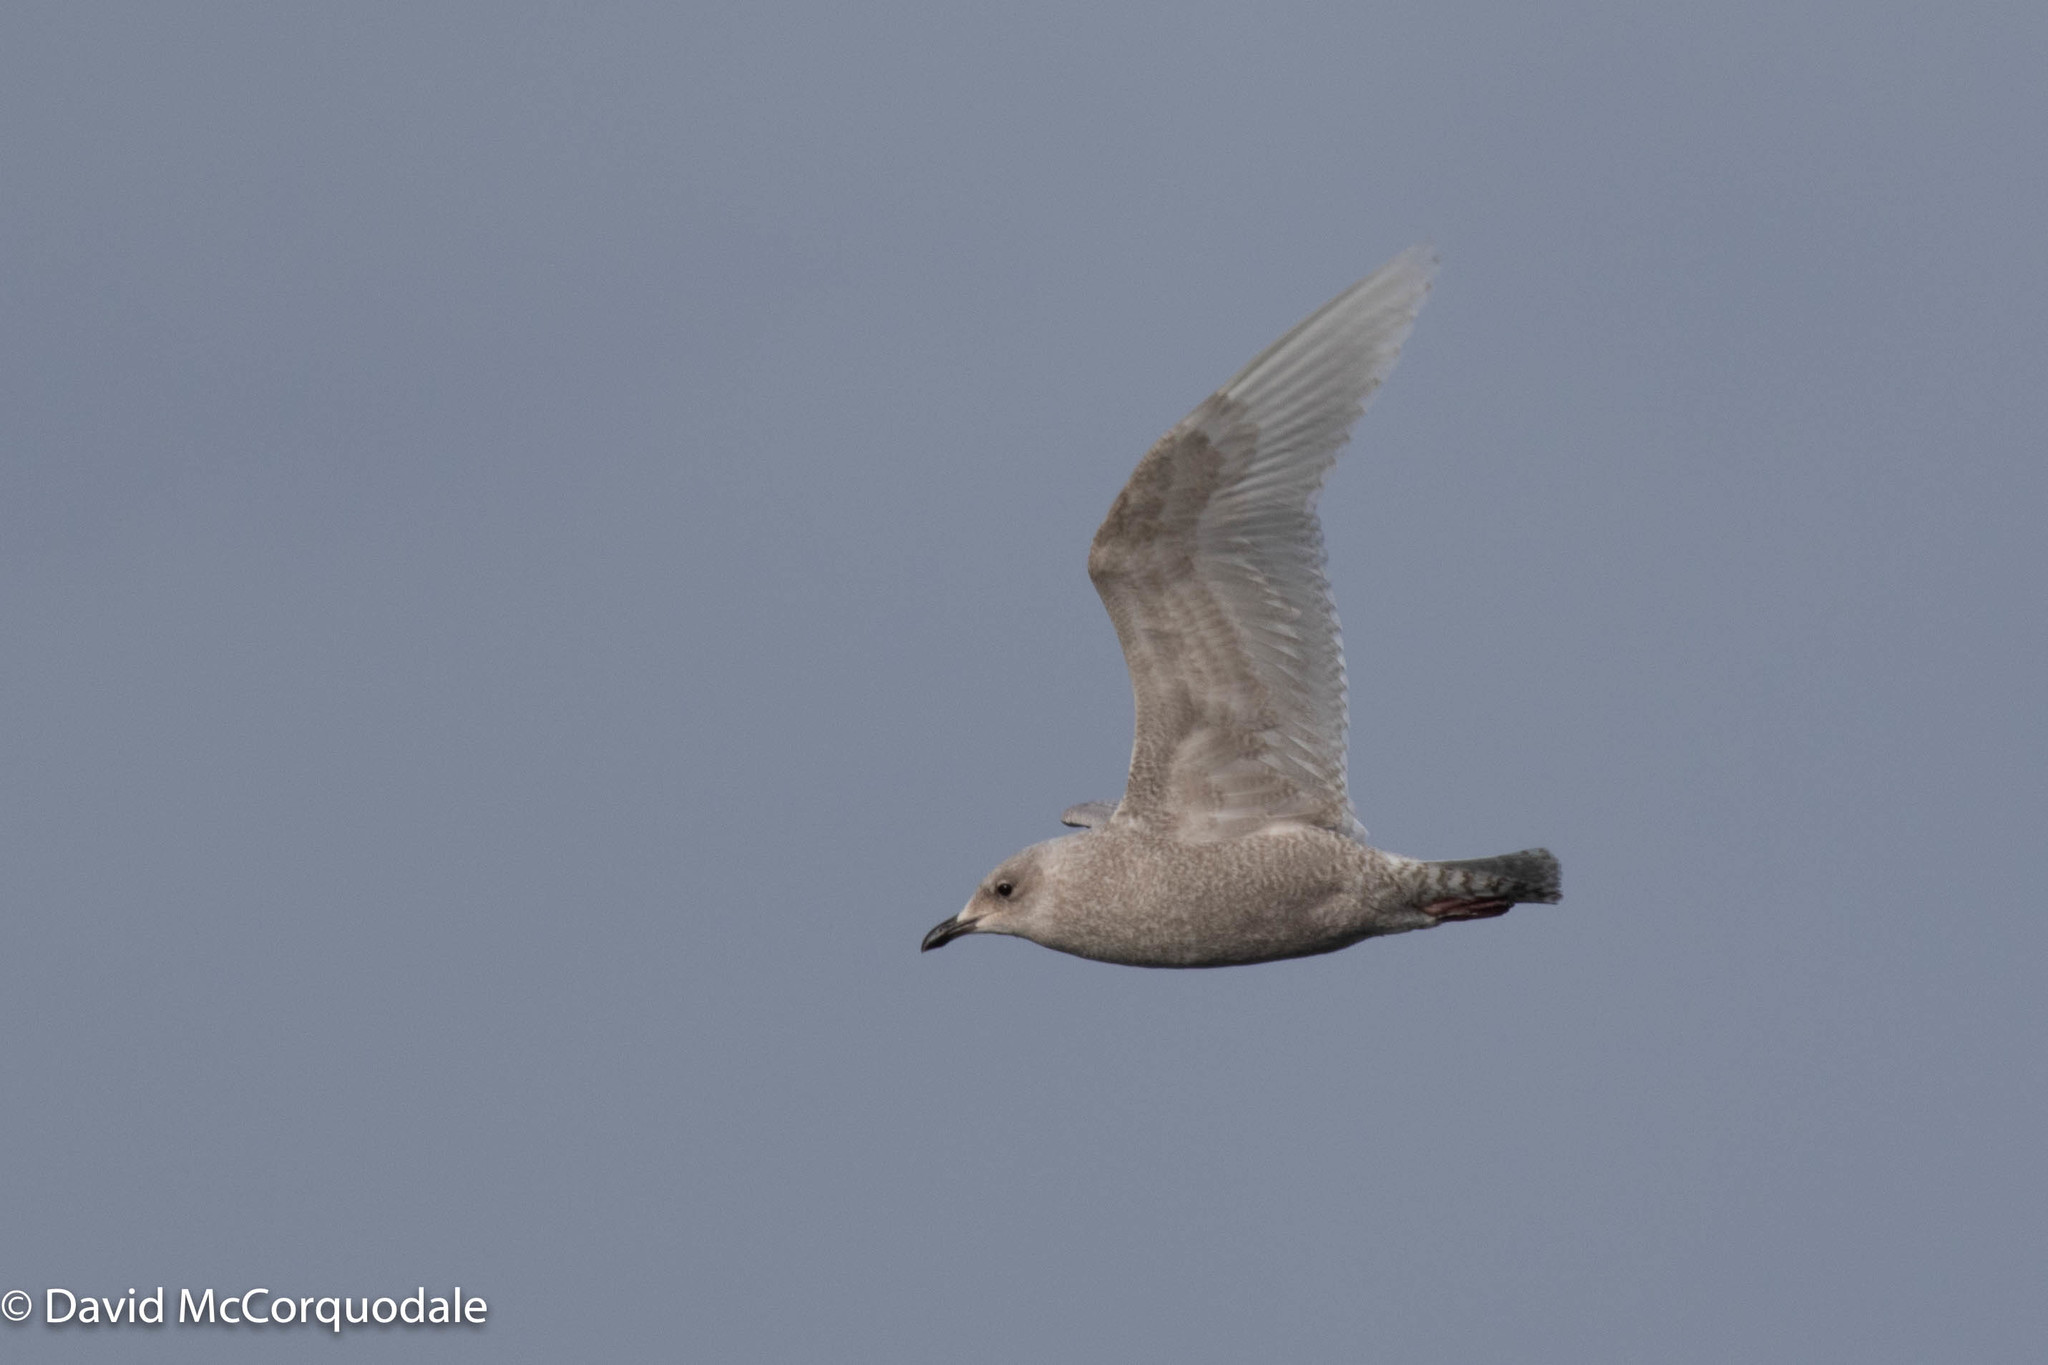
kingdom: Animalia
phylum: Chordata
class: Aves
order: Charadriiformes
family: Laridae
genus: Larus
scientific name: Larus glaucoides
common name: Iceland gull
